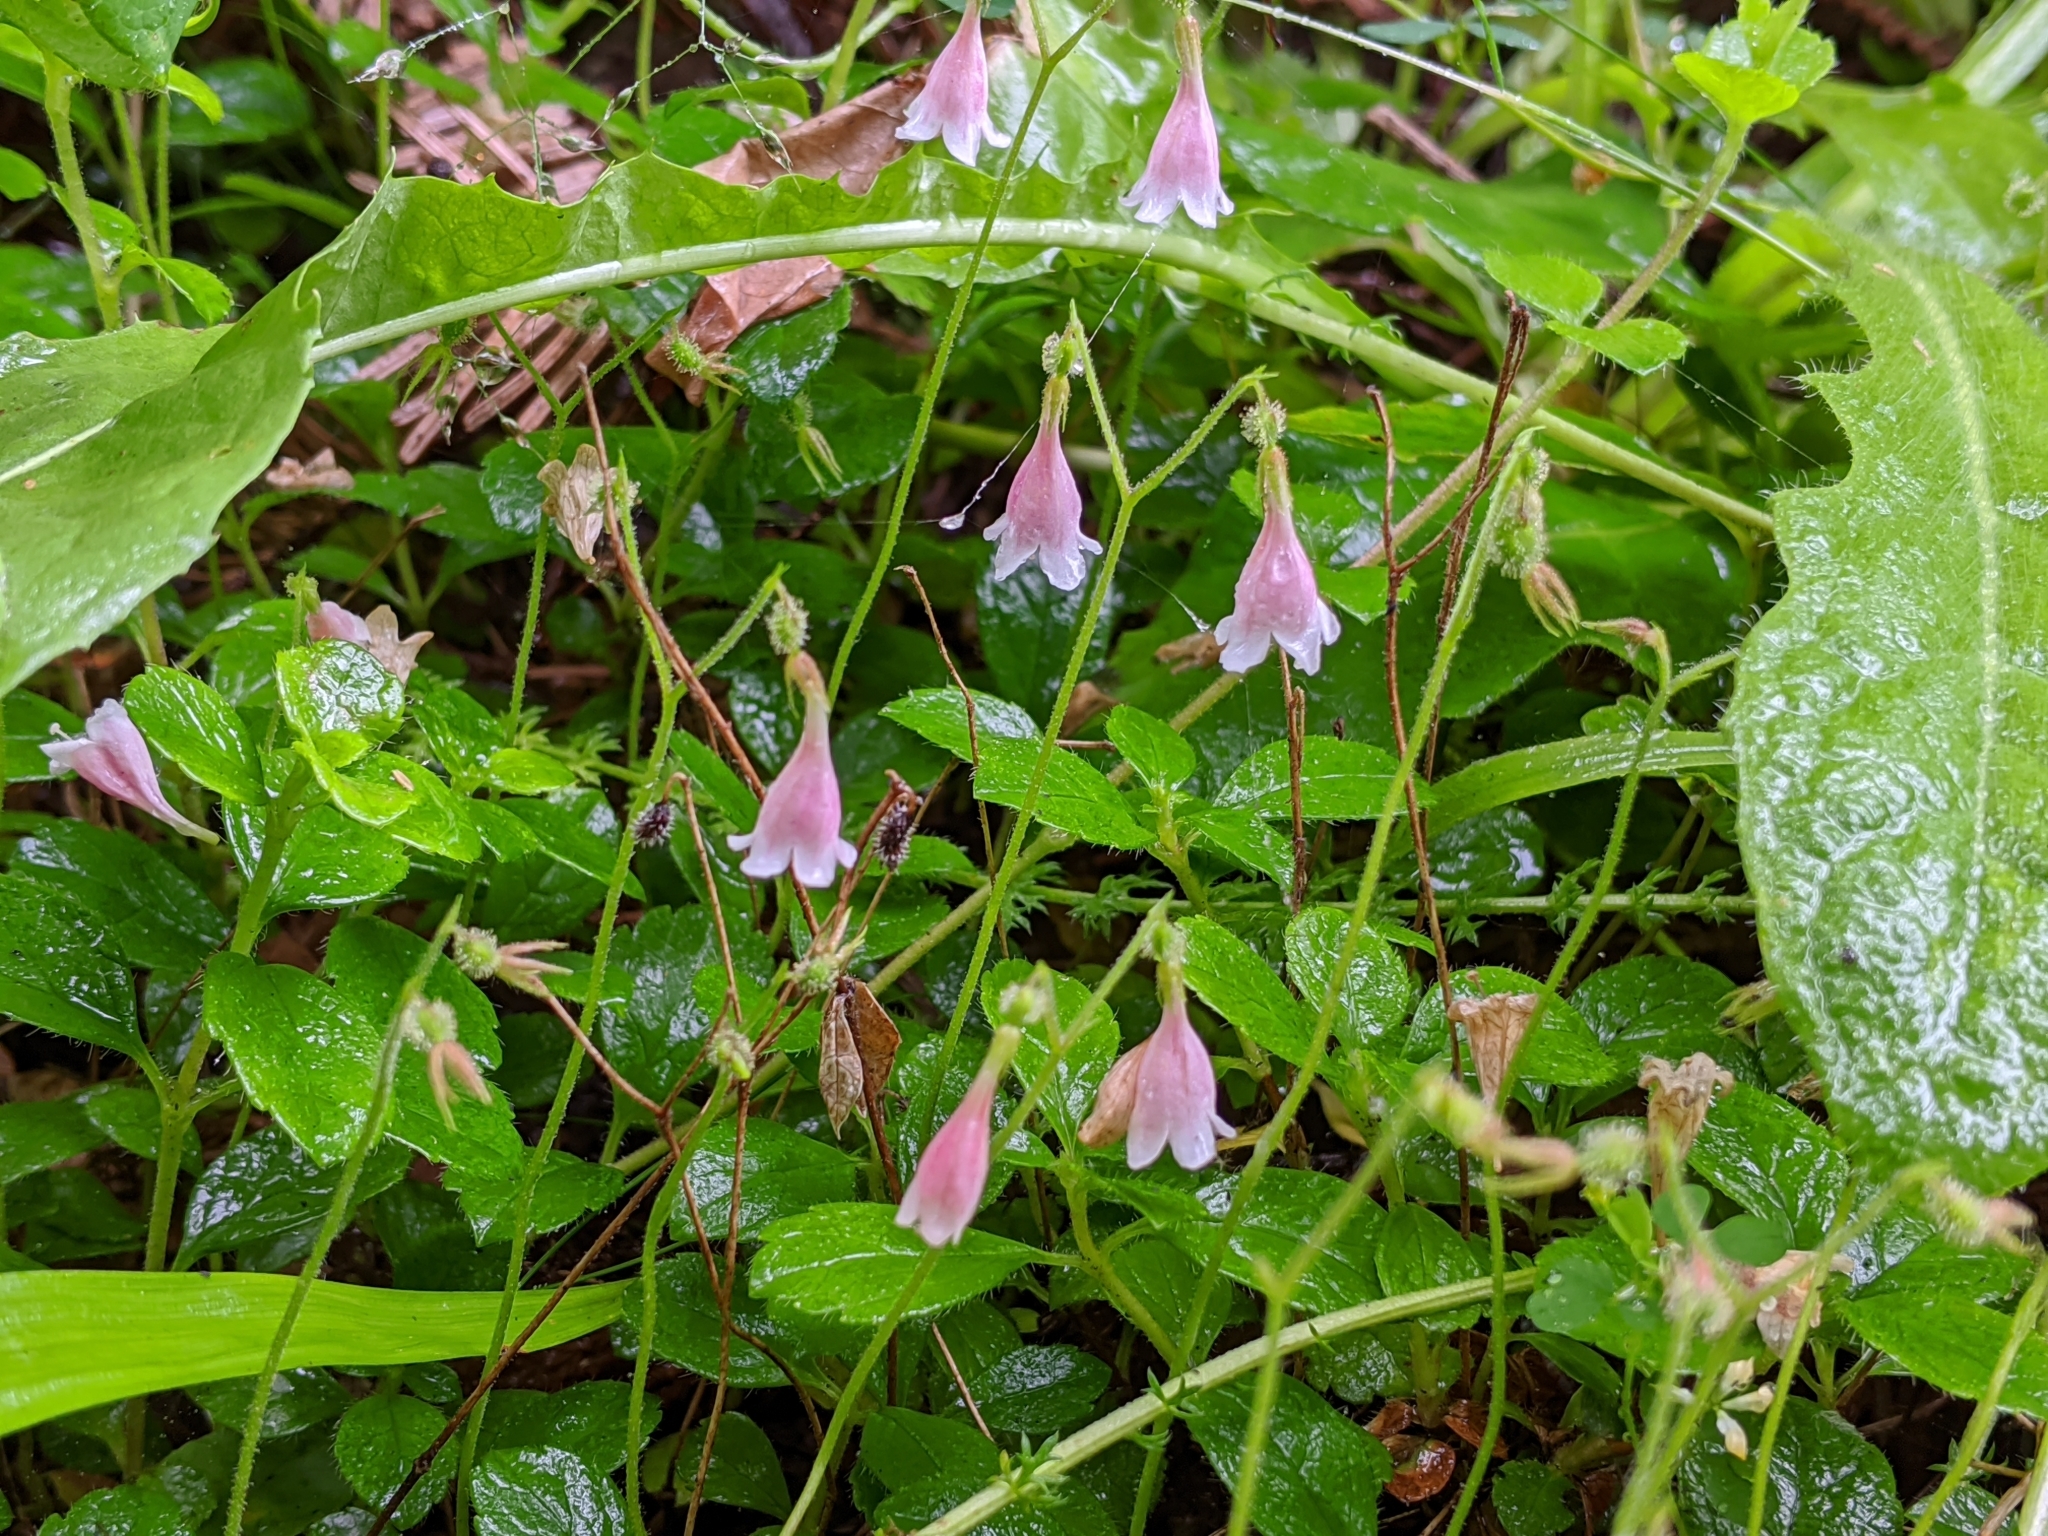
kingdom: Plantae
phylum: Tracheophyta
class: Magnoliopsida
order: Dipsacales
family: Caprifoliaceae
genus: Linnaea
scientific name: Linnaea borealis
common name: Twinflower
